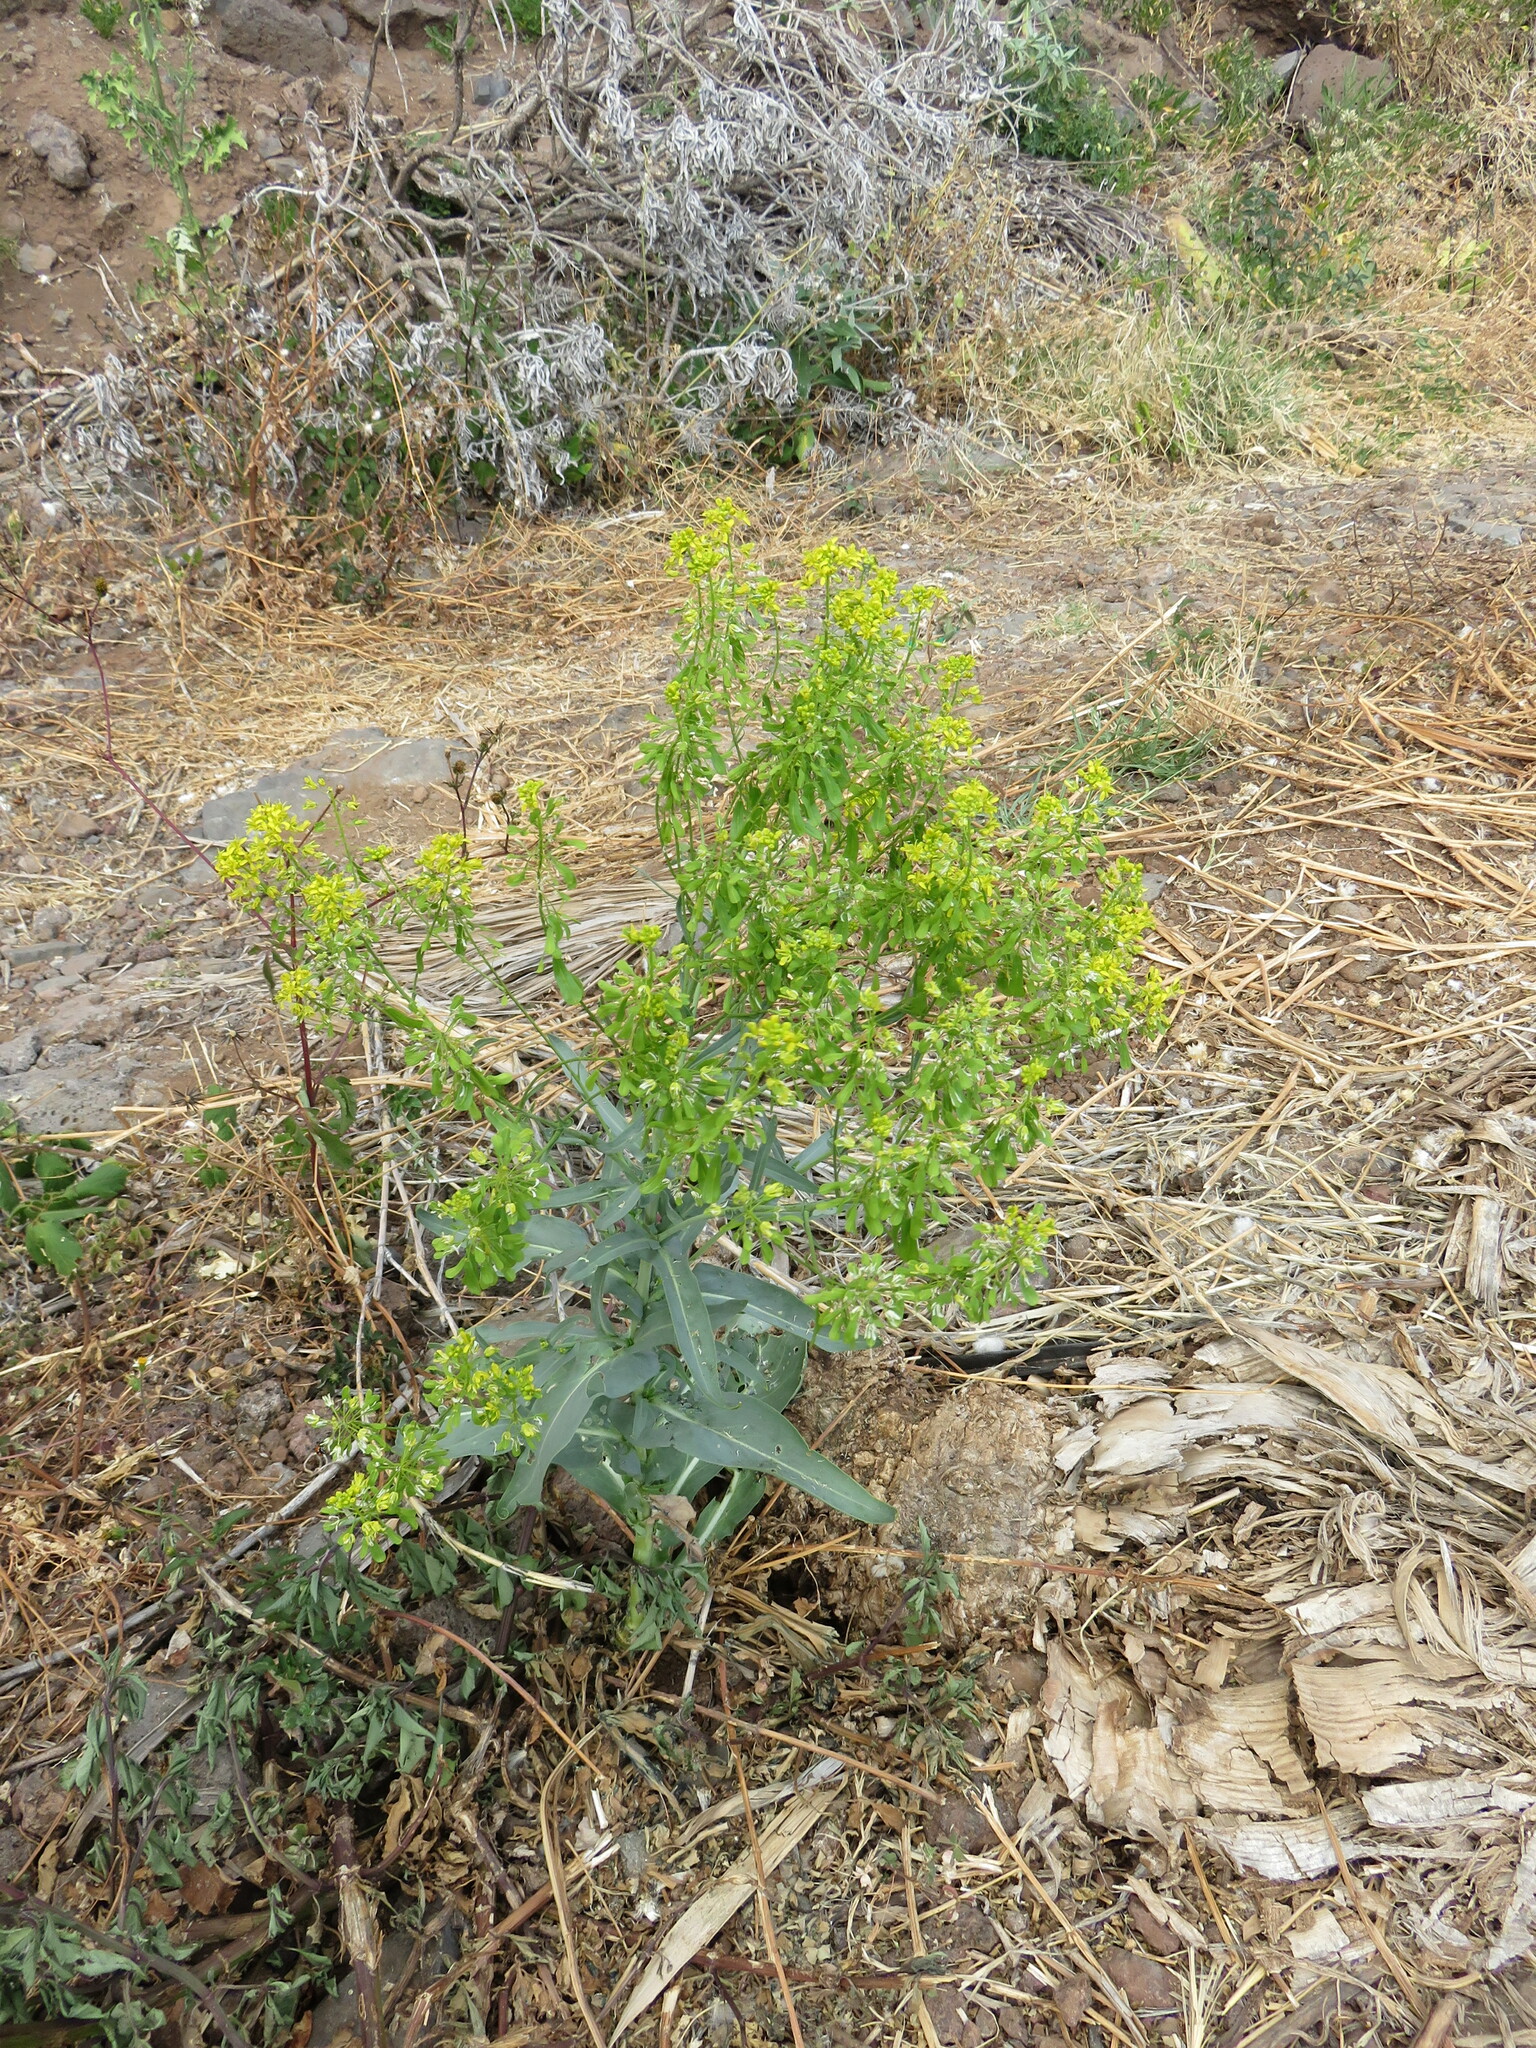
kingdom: Plantae
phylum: Tracheophyta
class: Magnoliopsida
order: Brassicales
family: Brassicaceae
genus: Isatis
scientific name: Isatis tinctoria
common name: Woad
